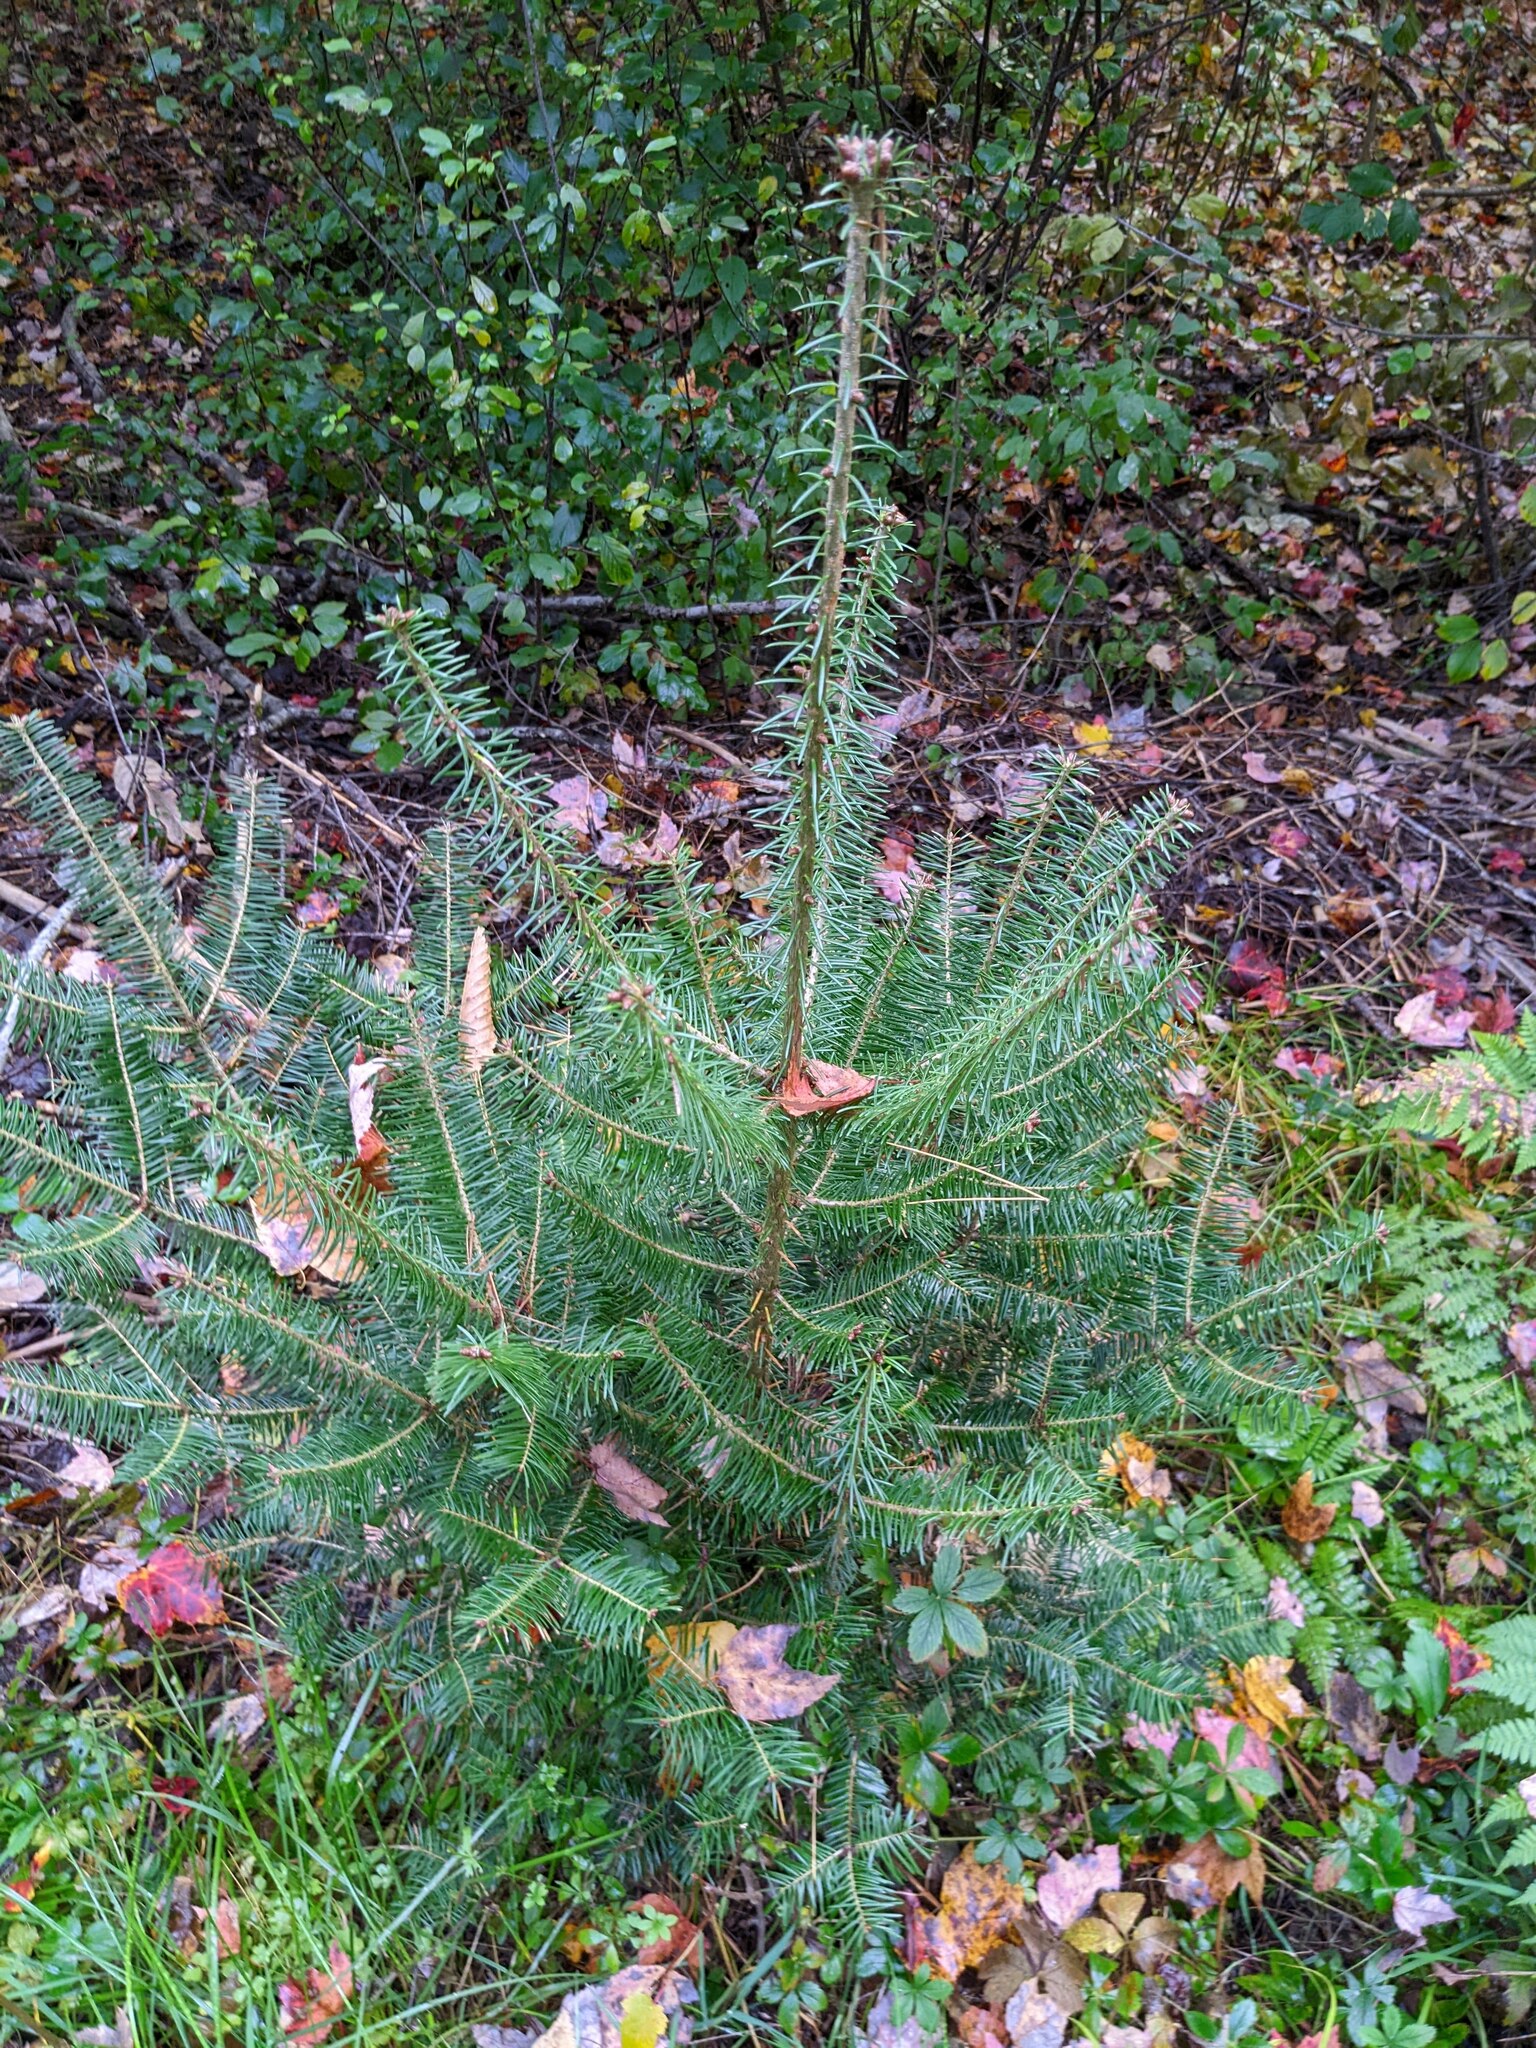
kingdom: Plantae
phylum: Tracheophyta
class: Pinopsida
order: Pinales
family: Pinaceae
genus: Abies
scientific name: Abies balsamea
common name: Balsam fir
